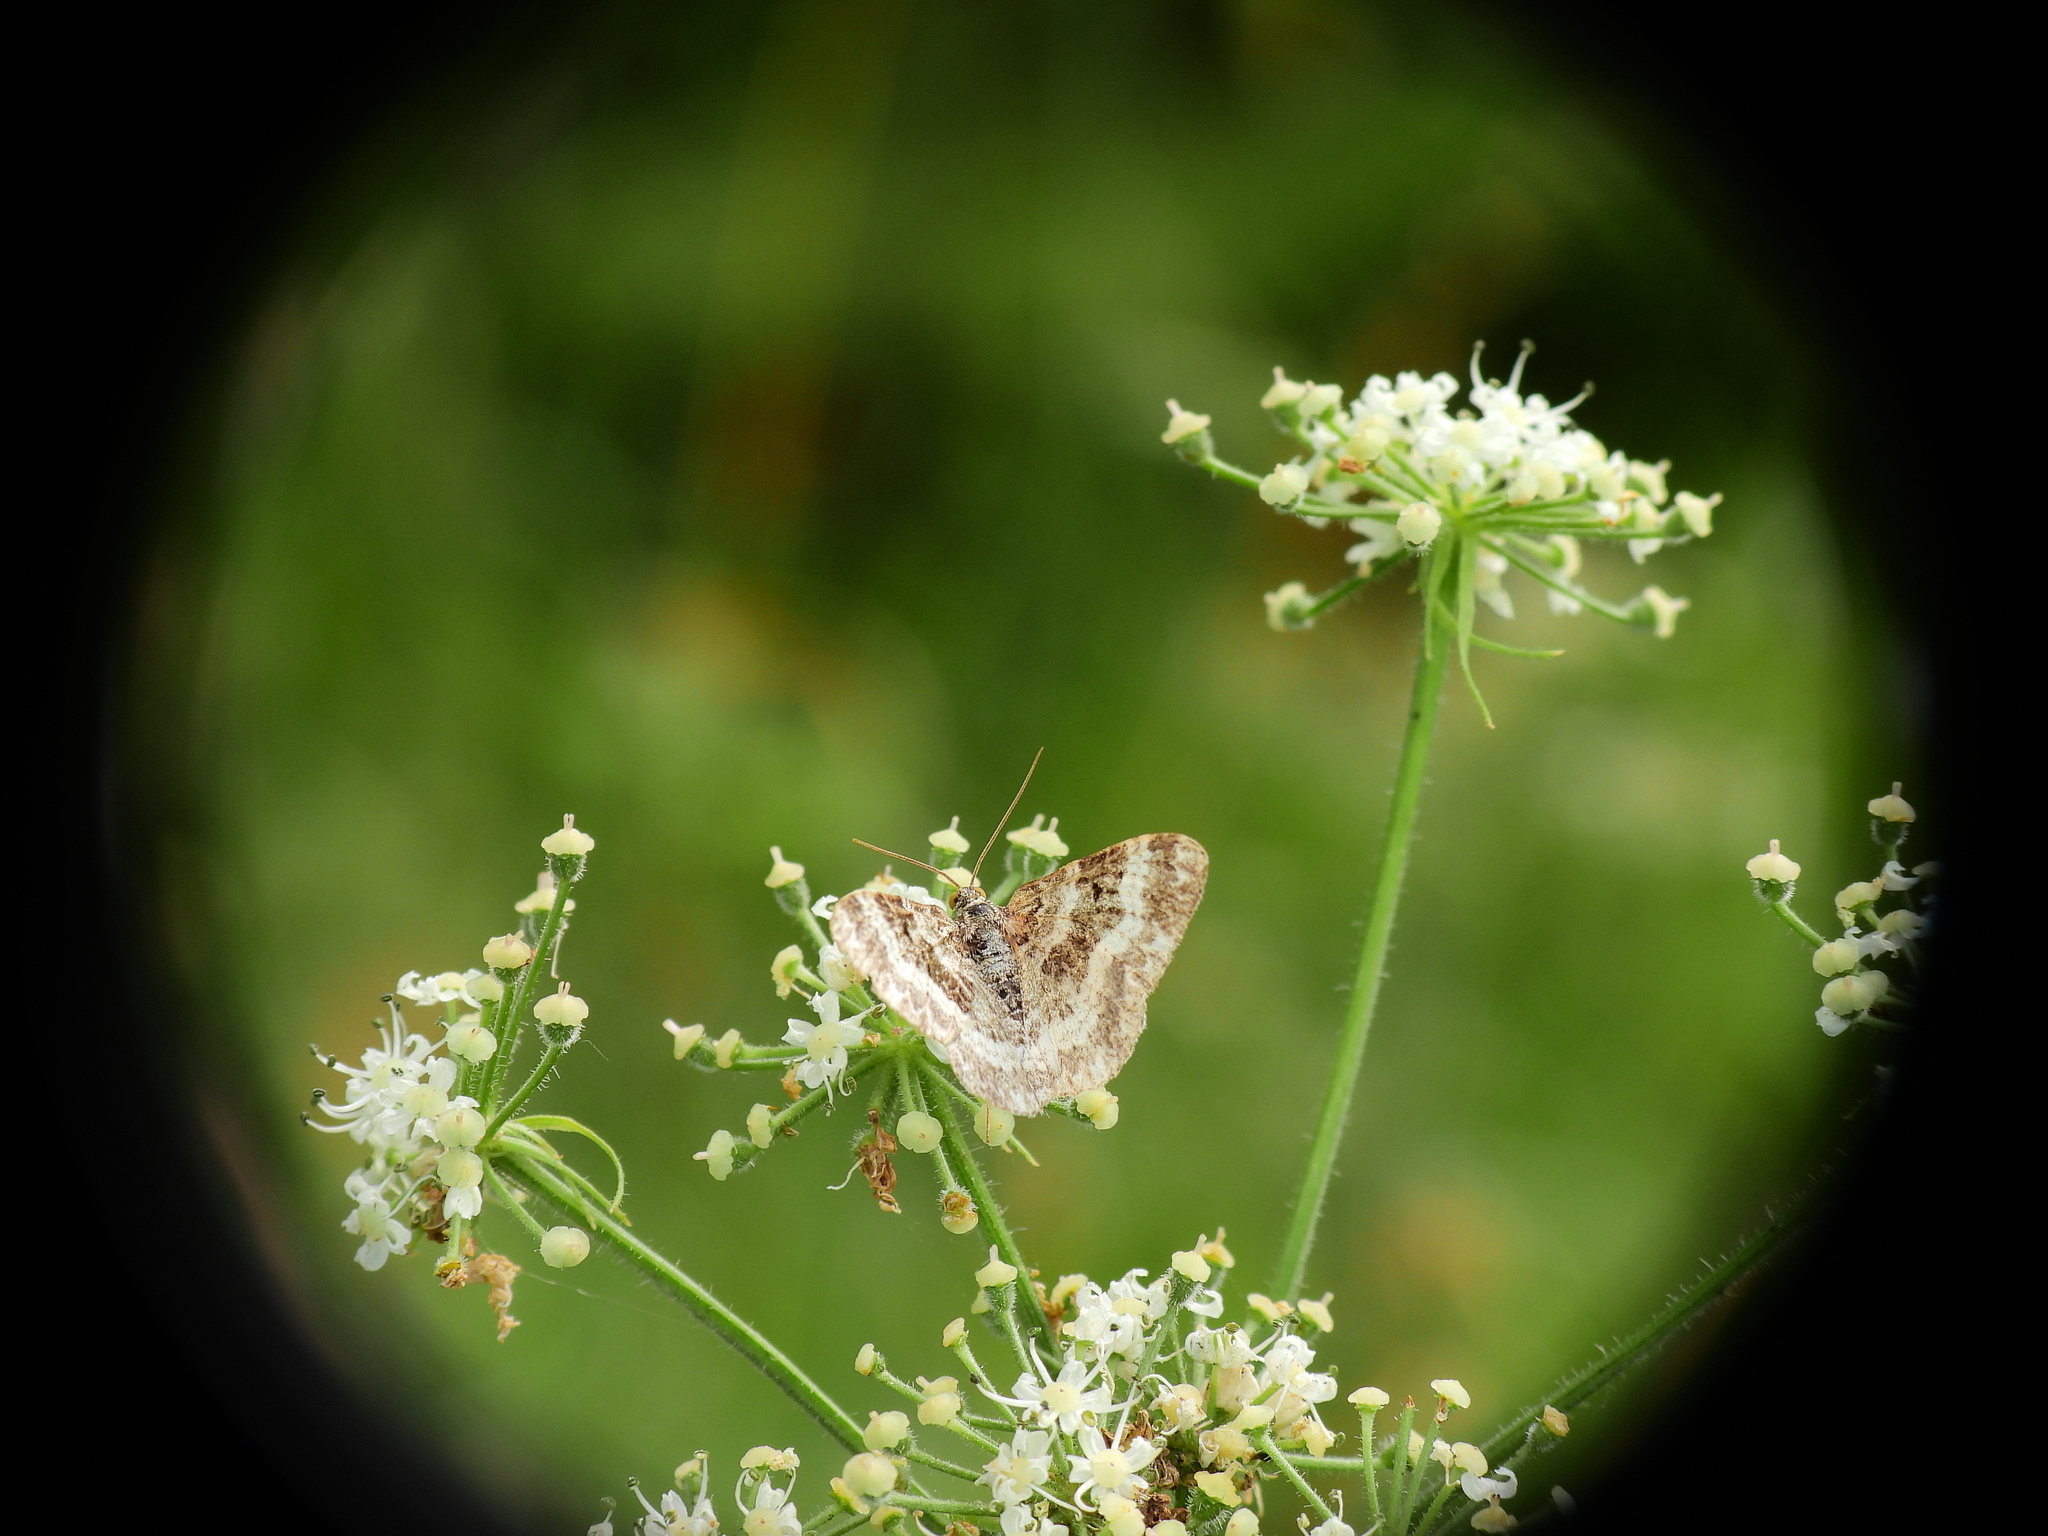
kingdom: Animalia
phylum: Arthropoda
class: Insecta
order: Lepidoptera
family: Geometridae
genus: Epirrhoe
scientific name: Epirrhoe alternata
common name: Common carpet
